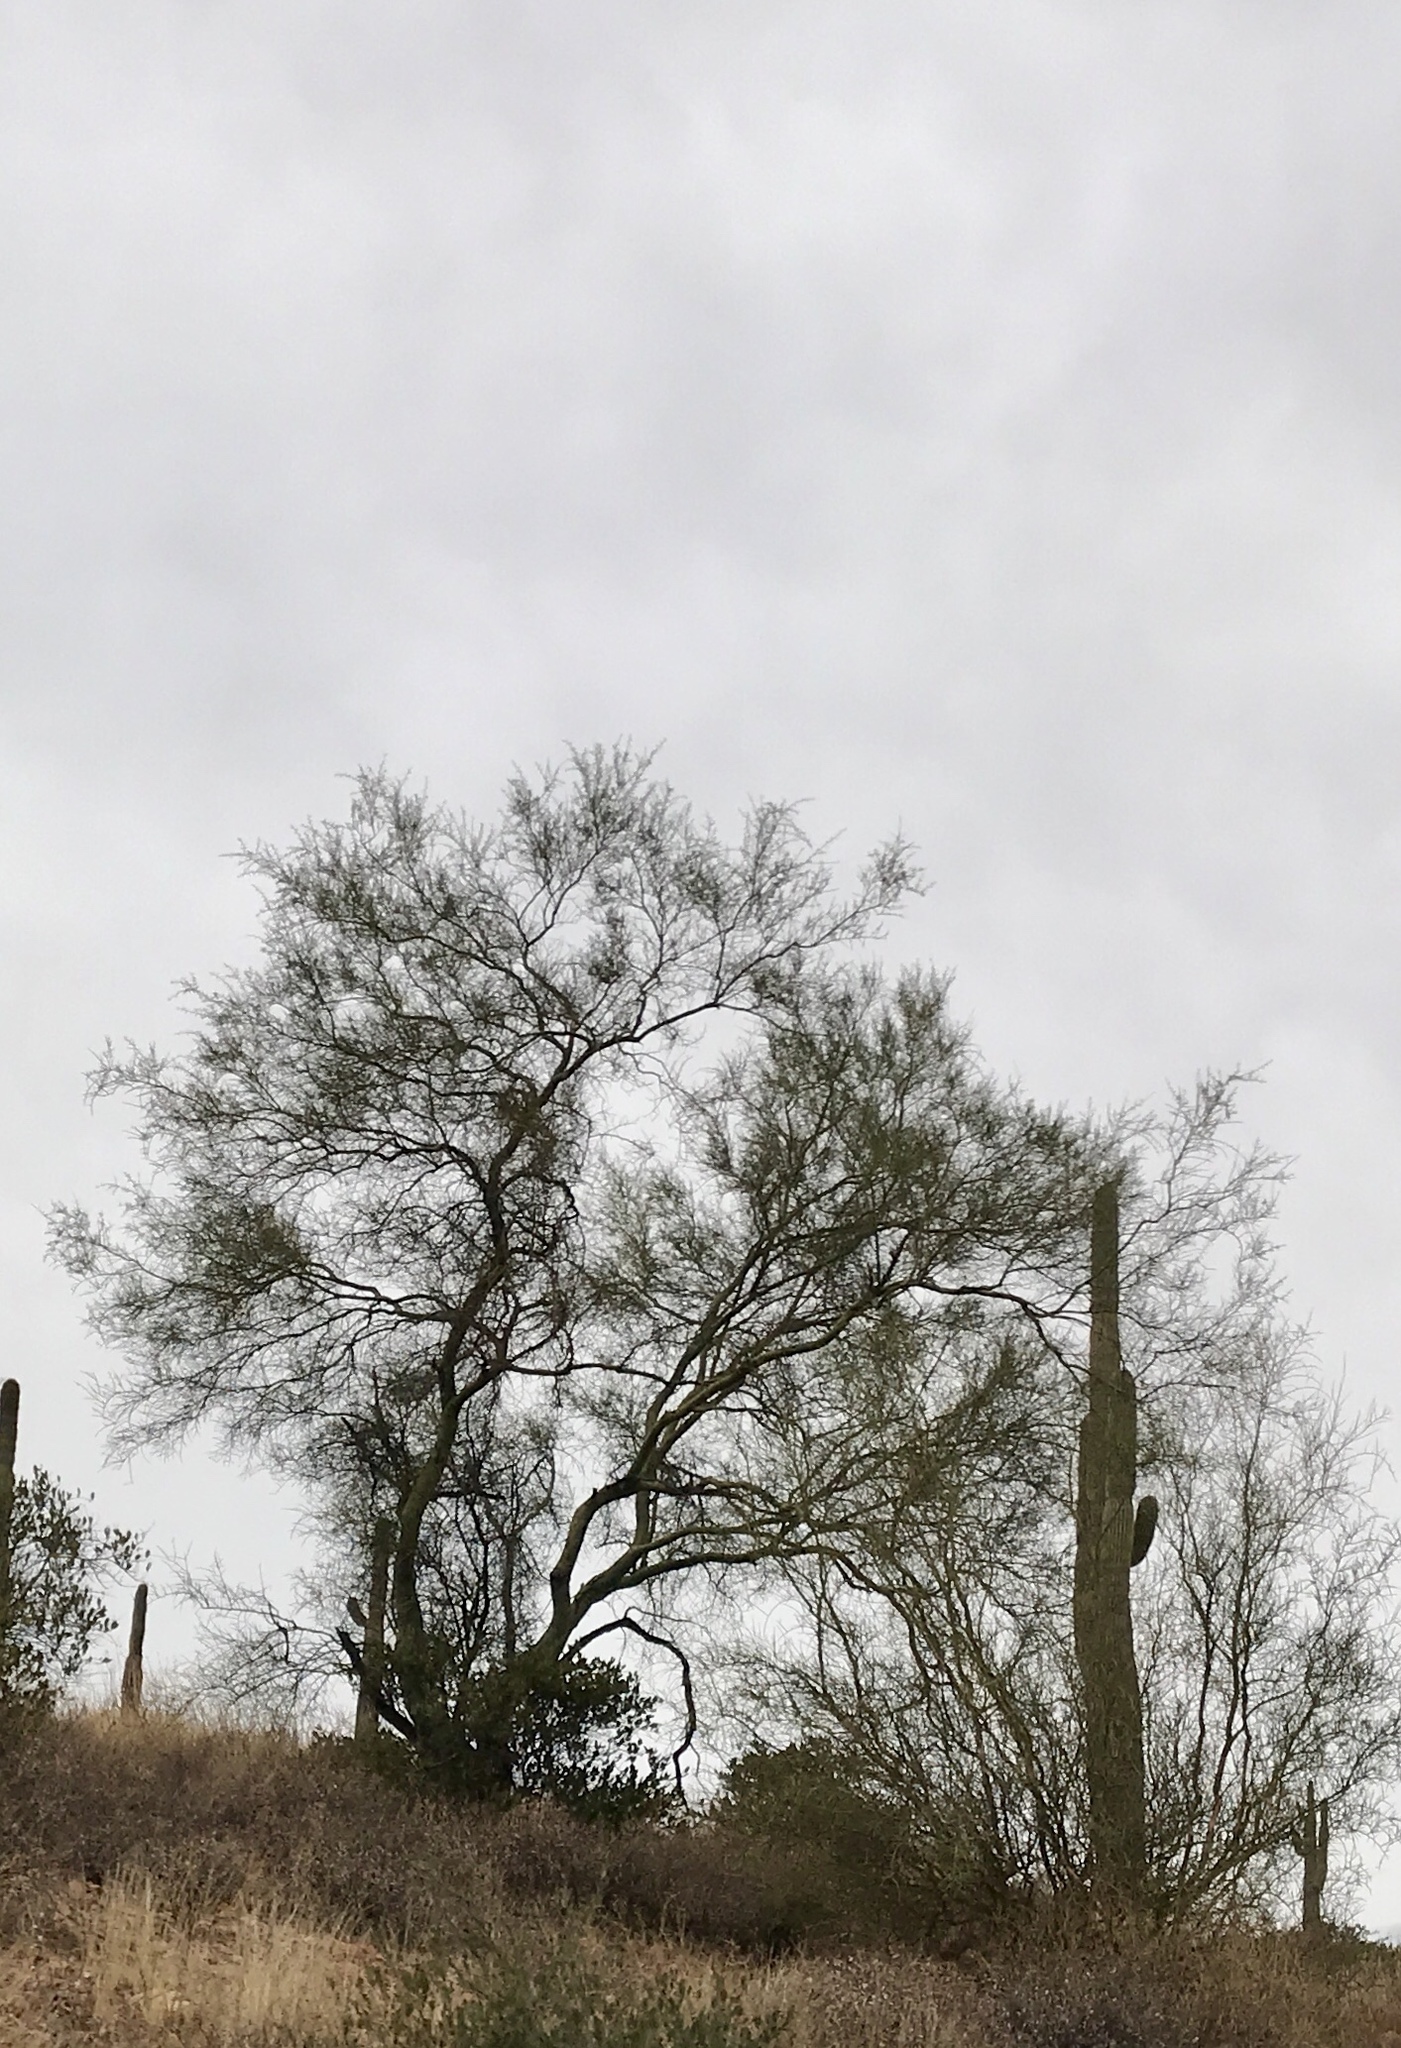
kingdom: Plantae
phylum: Tracheophyta
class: Magnoliopsida
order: Fabales
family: Fabaceae
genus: Parkinsonia
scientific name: Parkinsonia aculeata
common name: Jerusalem thorn
